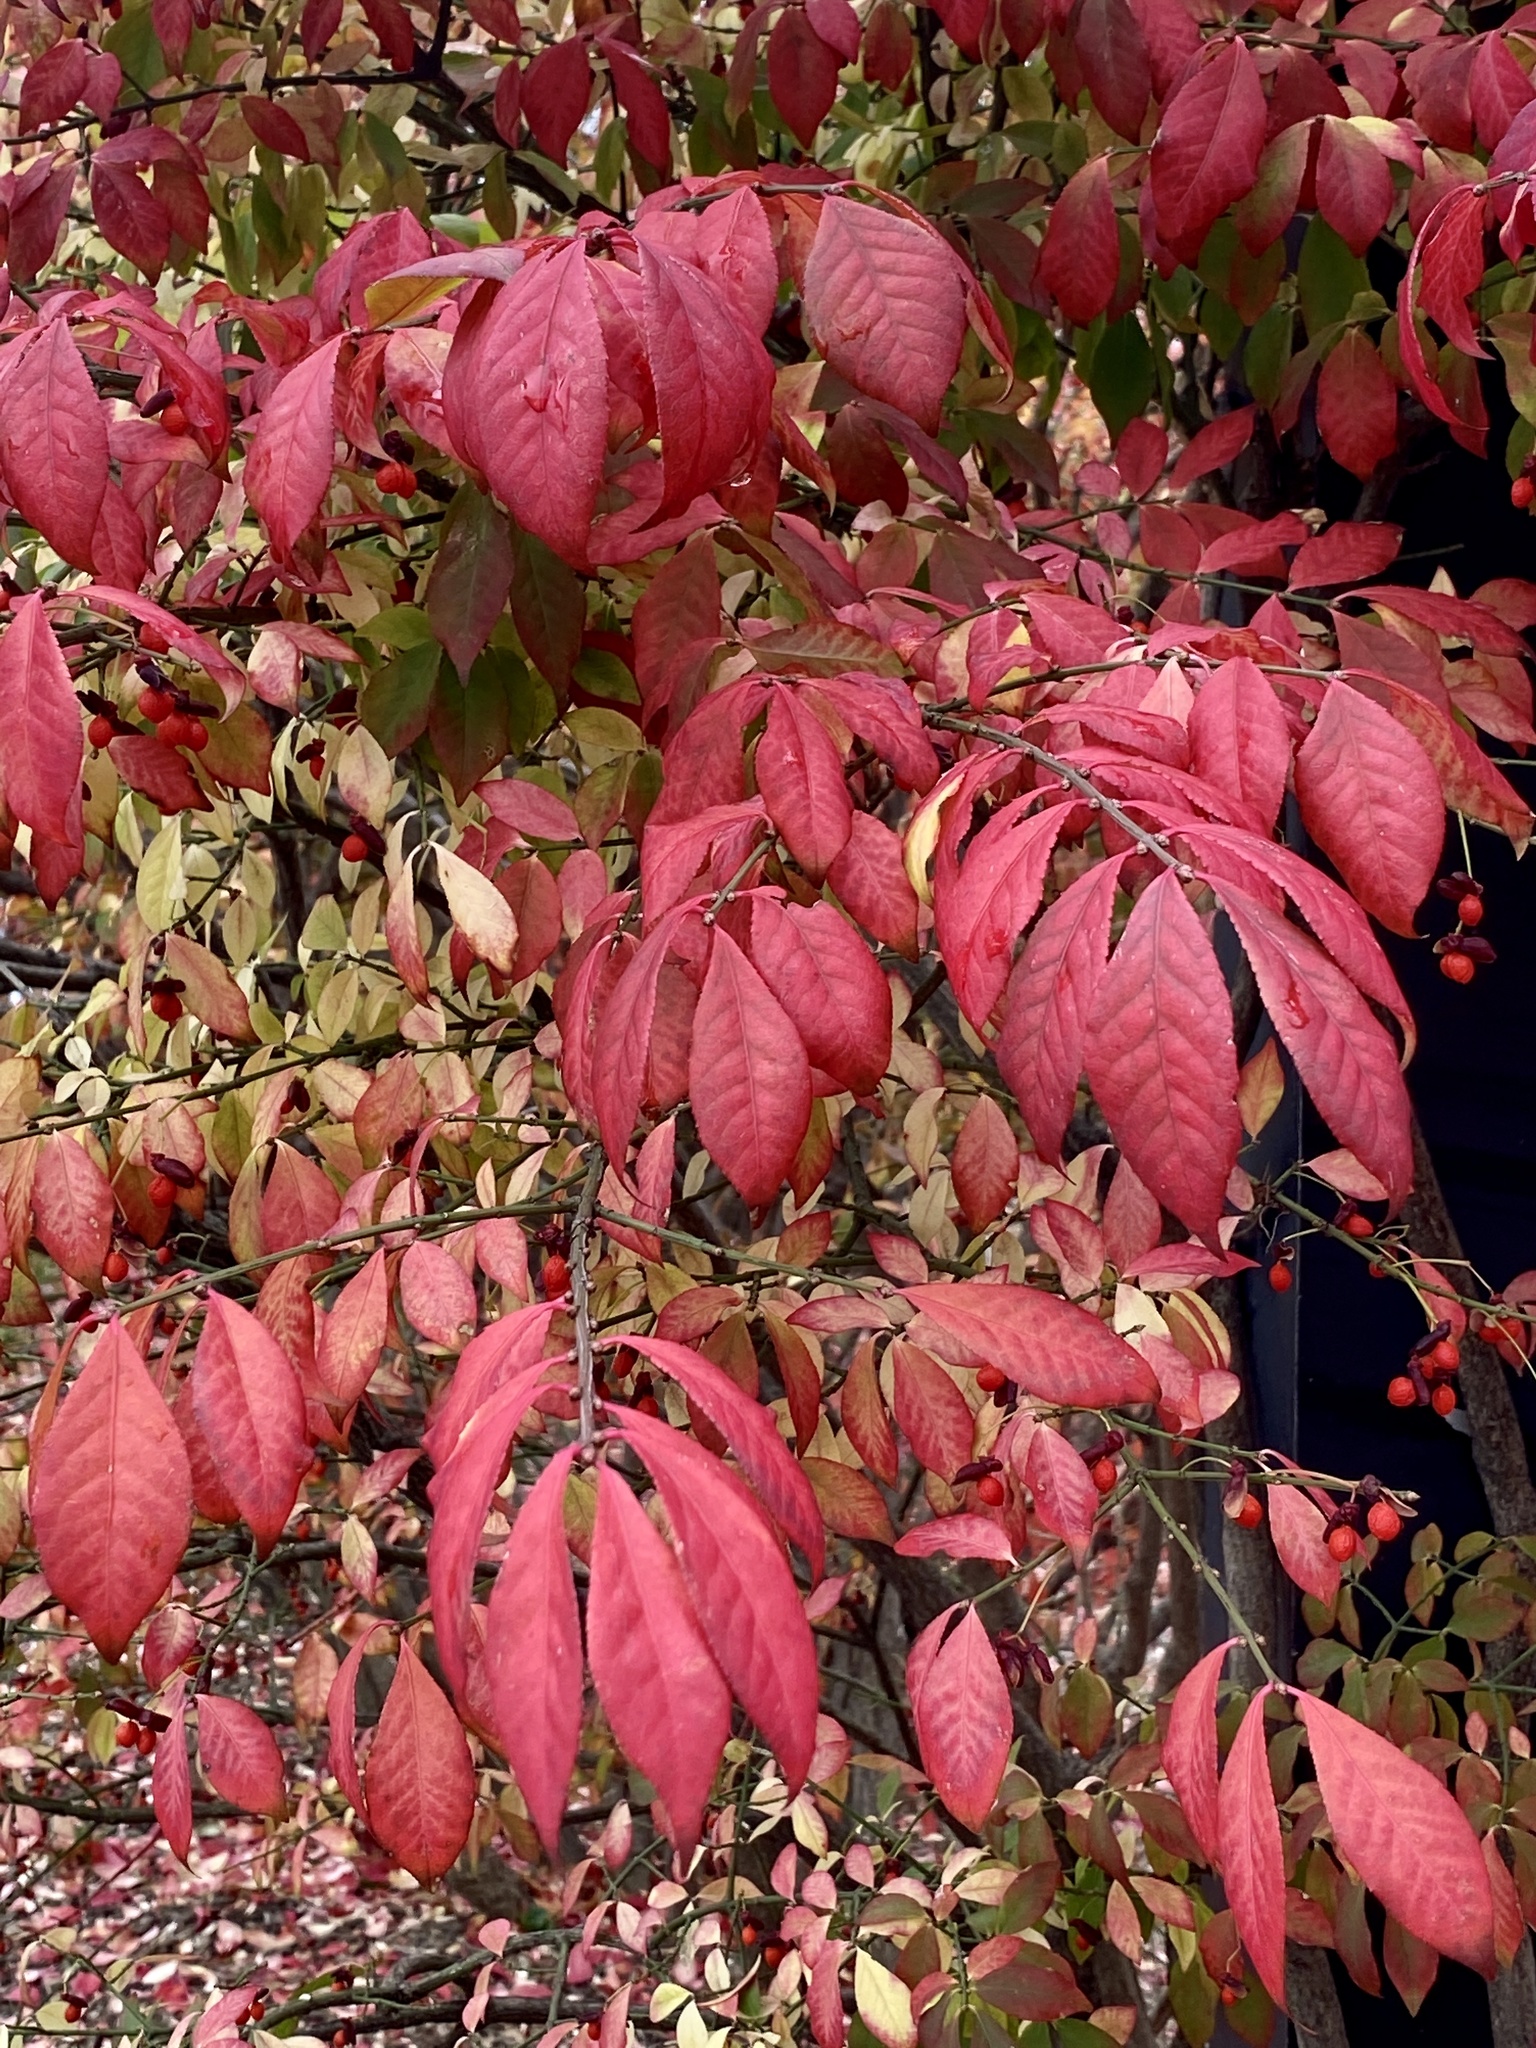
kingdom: Plantae
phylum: Tracheophyta
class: Magnoliopsida
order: Celastrales
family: Celastraceae
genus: Euonymus
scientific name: Euonymus alatus
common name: Winged euonymus
